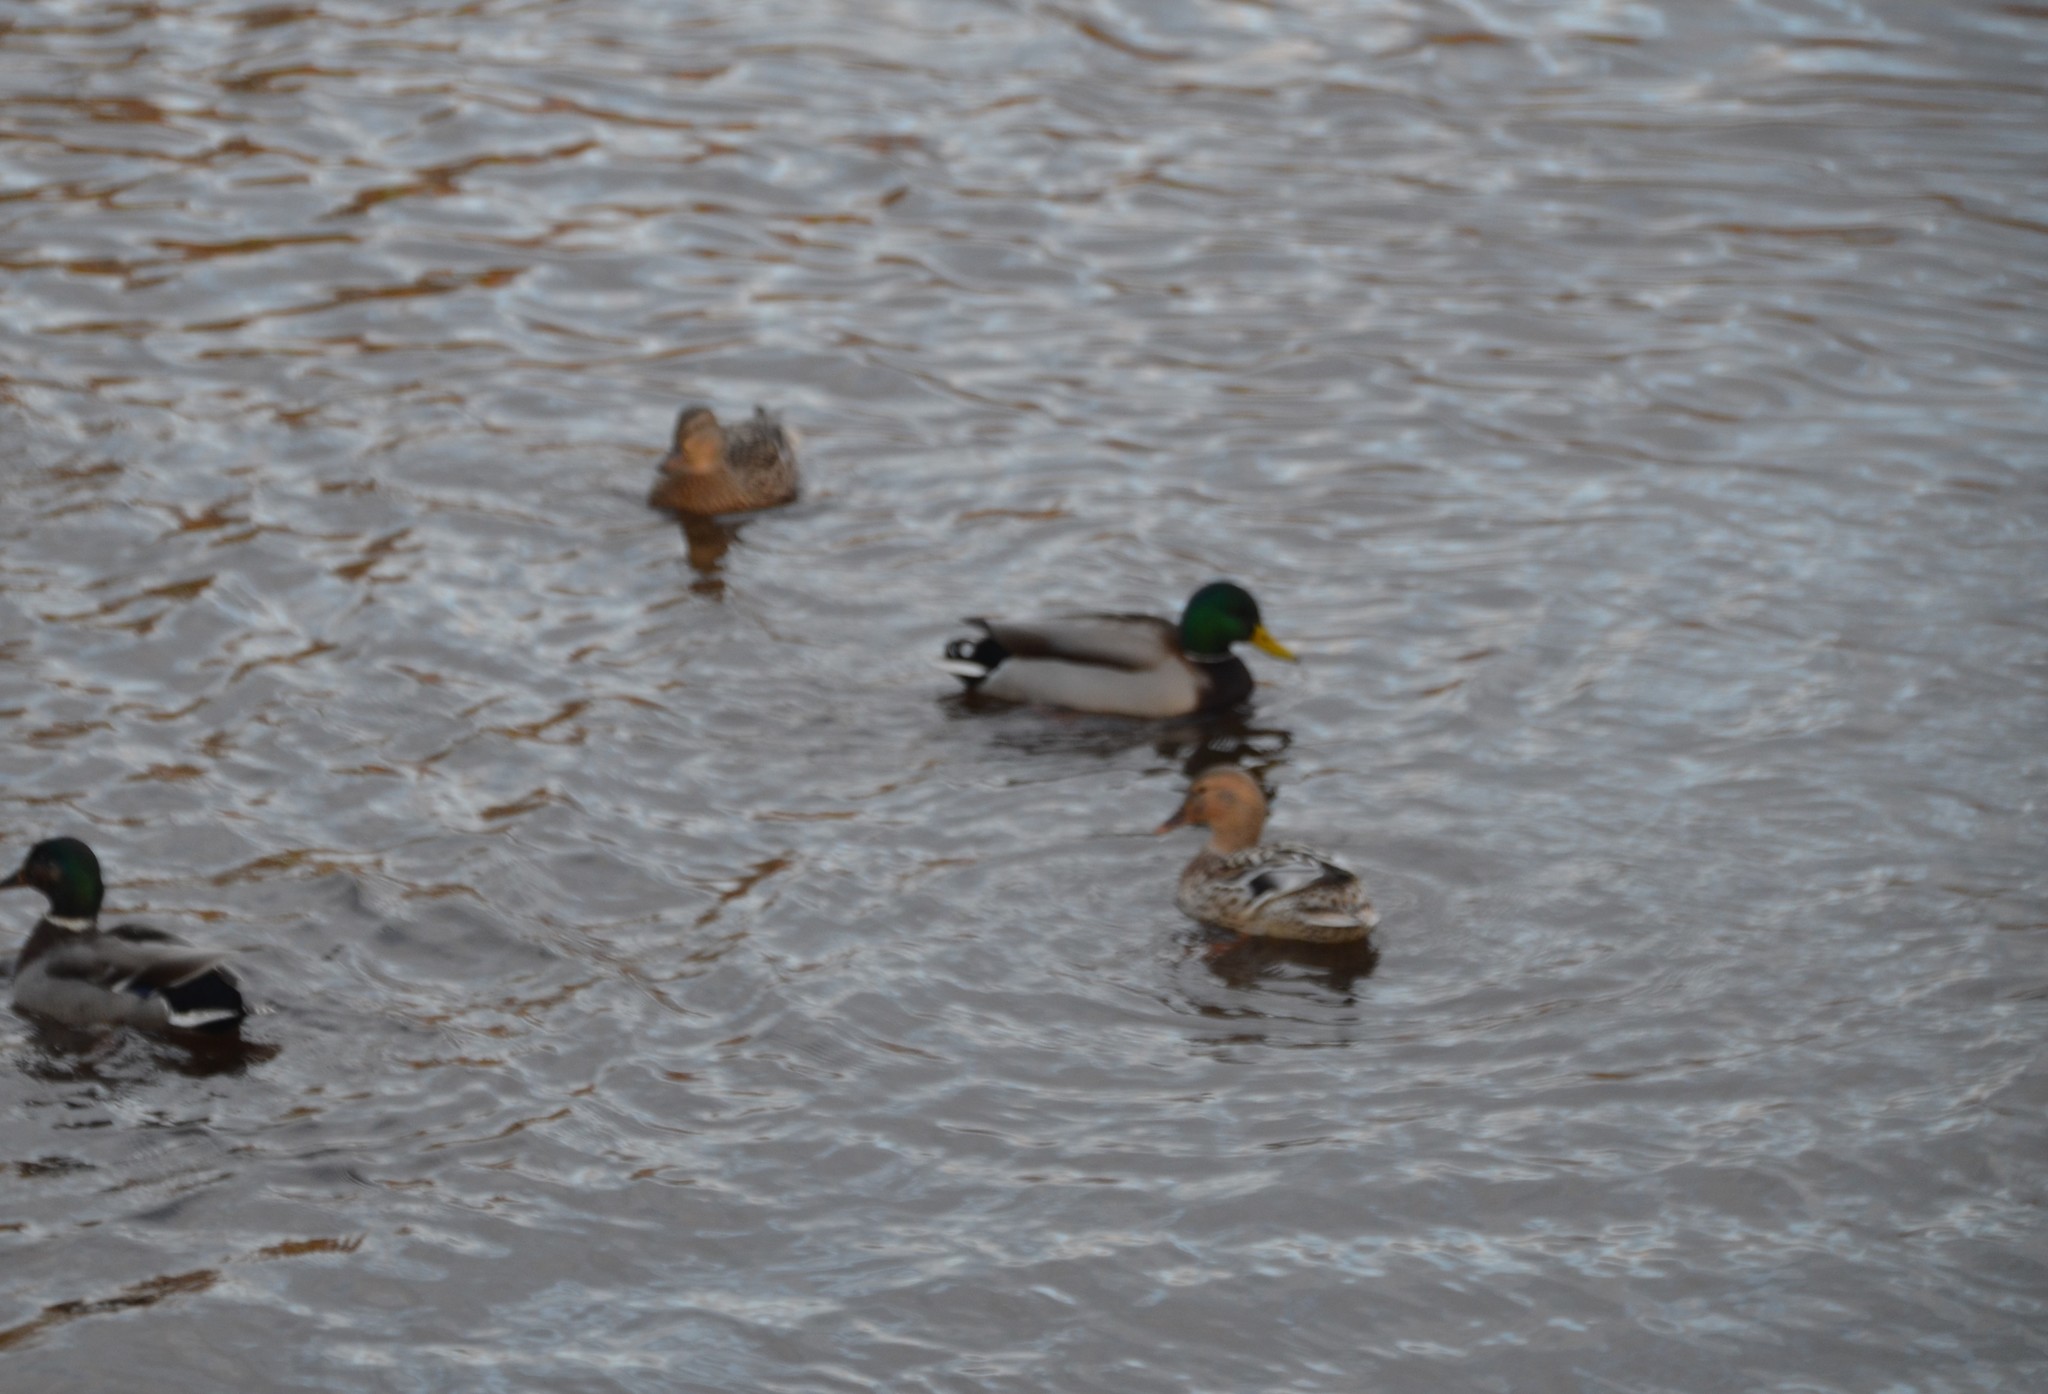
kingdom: Animalia
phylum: Chordata
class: Aves
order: Anseriformes
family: Anatidae
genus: Anas
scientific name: Anas platyrhynchos
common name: Mallard
